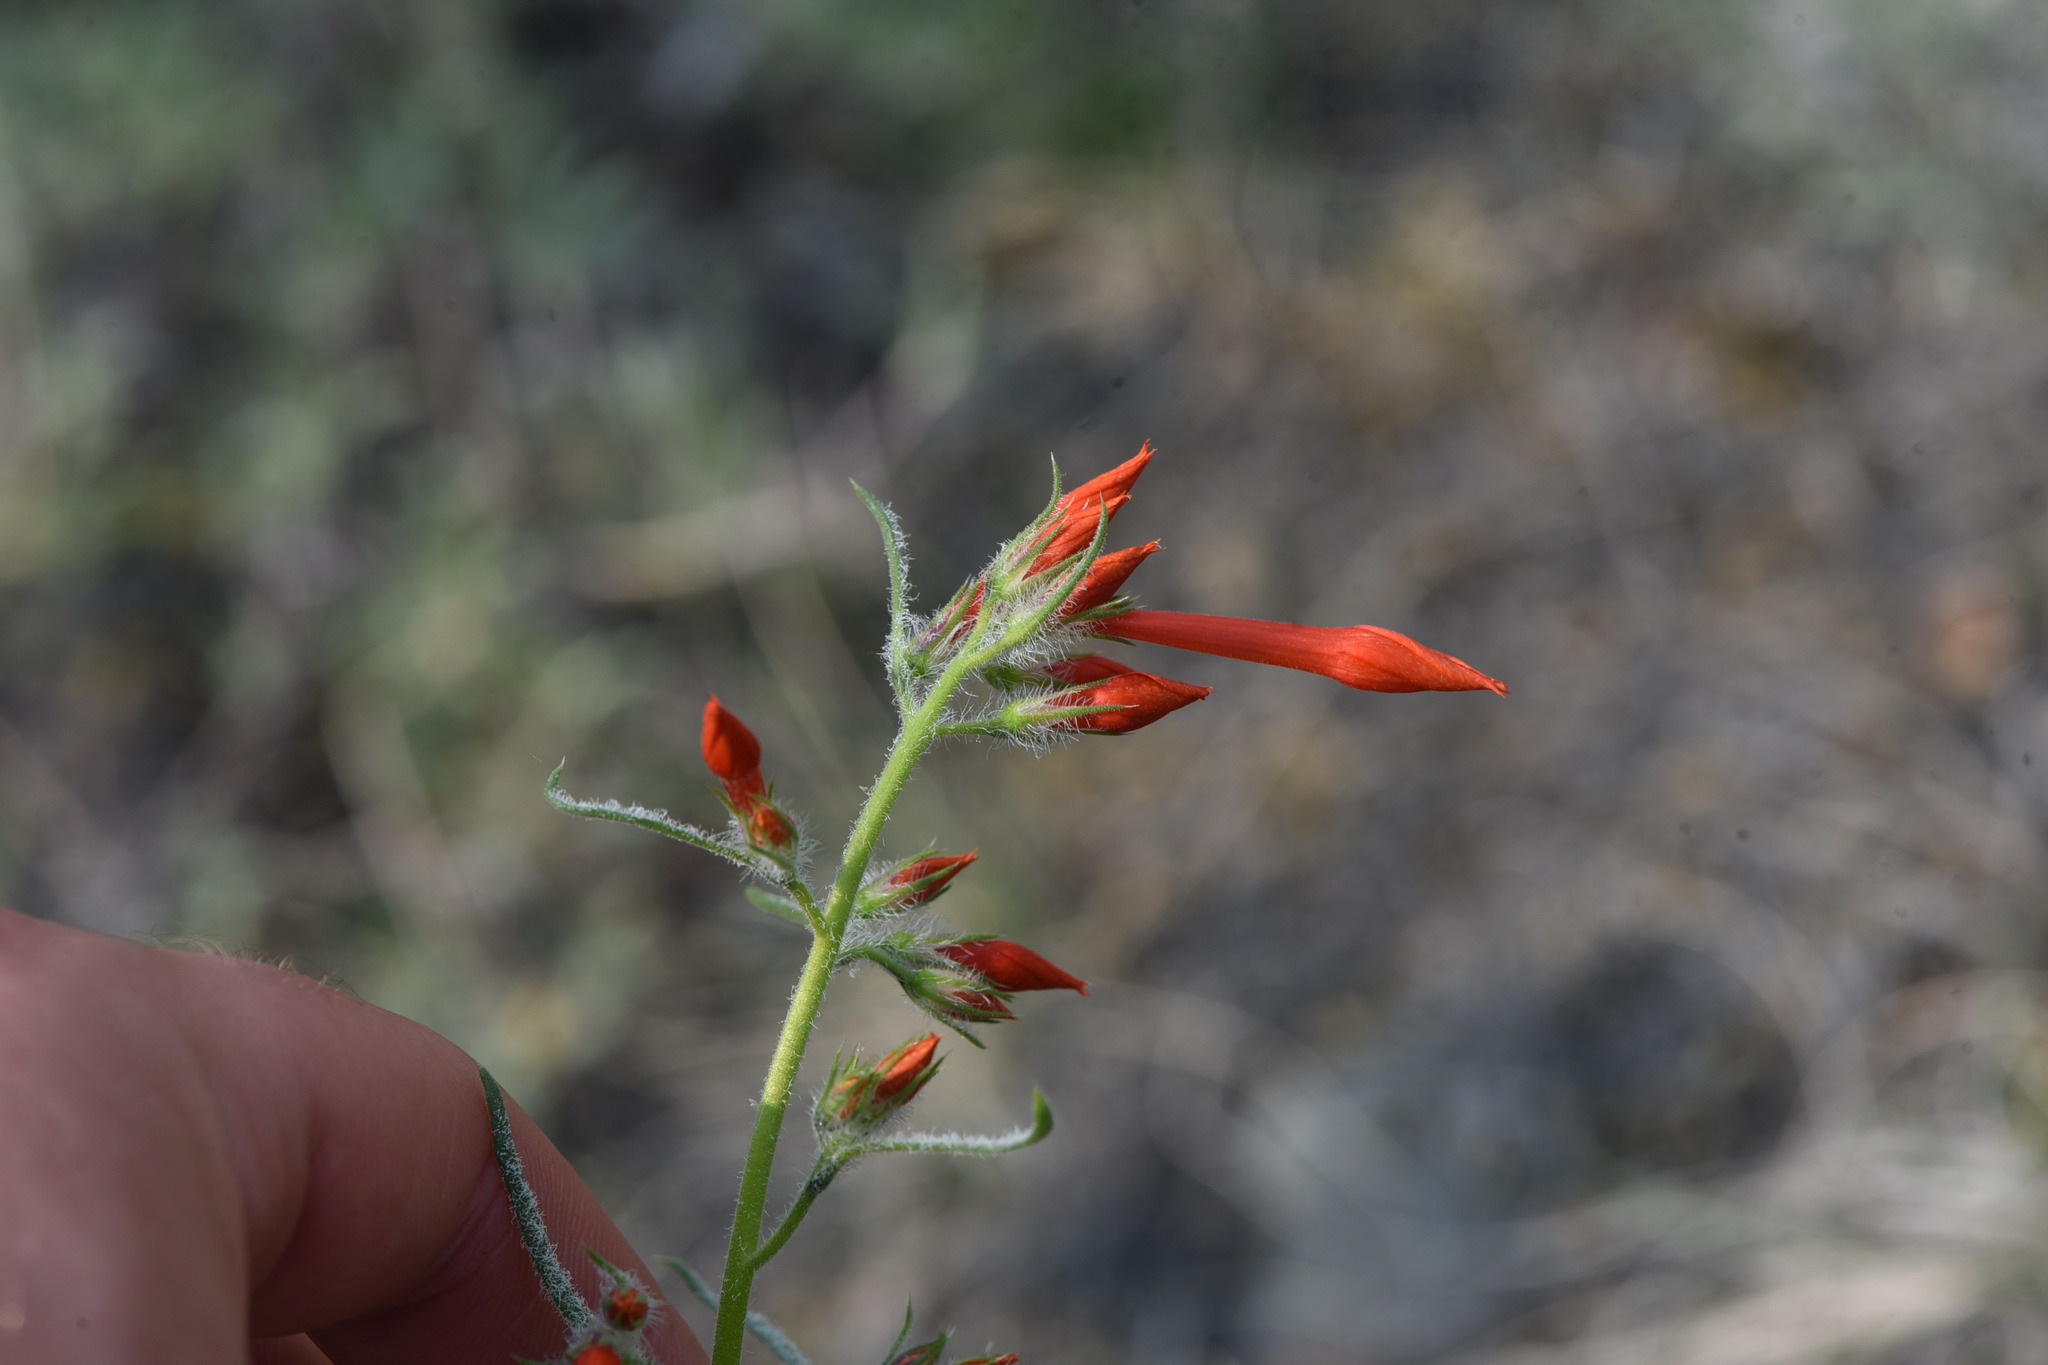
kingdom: Plantae
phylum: Tracheophyta
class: Magnoliopsida
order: Ericales
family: Polemoniaceae
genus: Ipomopsis
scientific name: Ipomopsis aggregata
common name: Scarlet gilia
